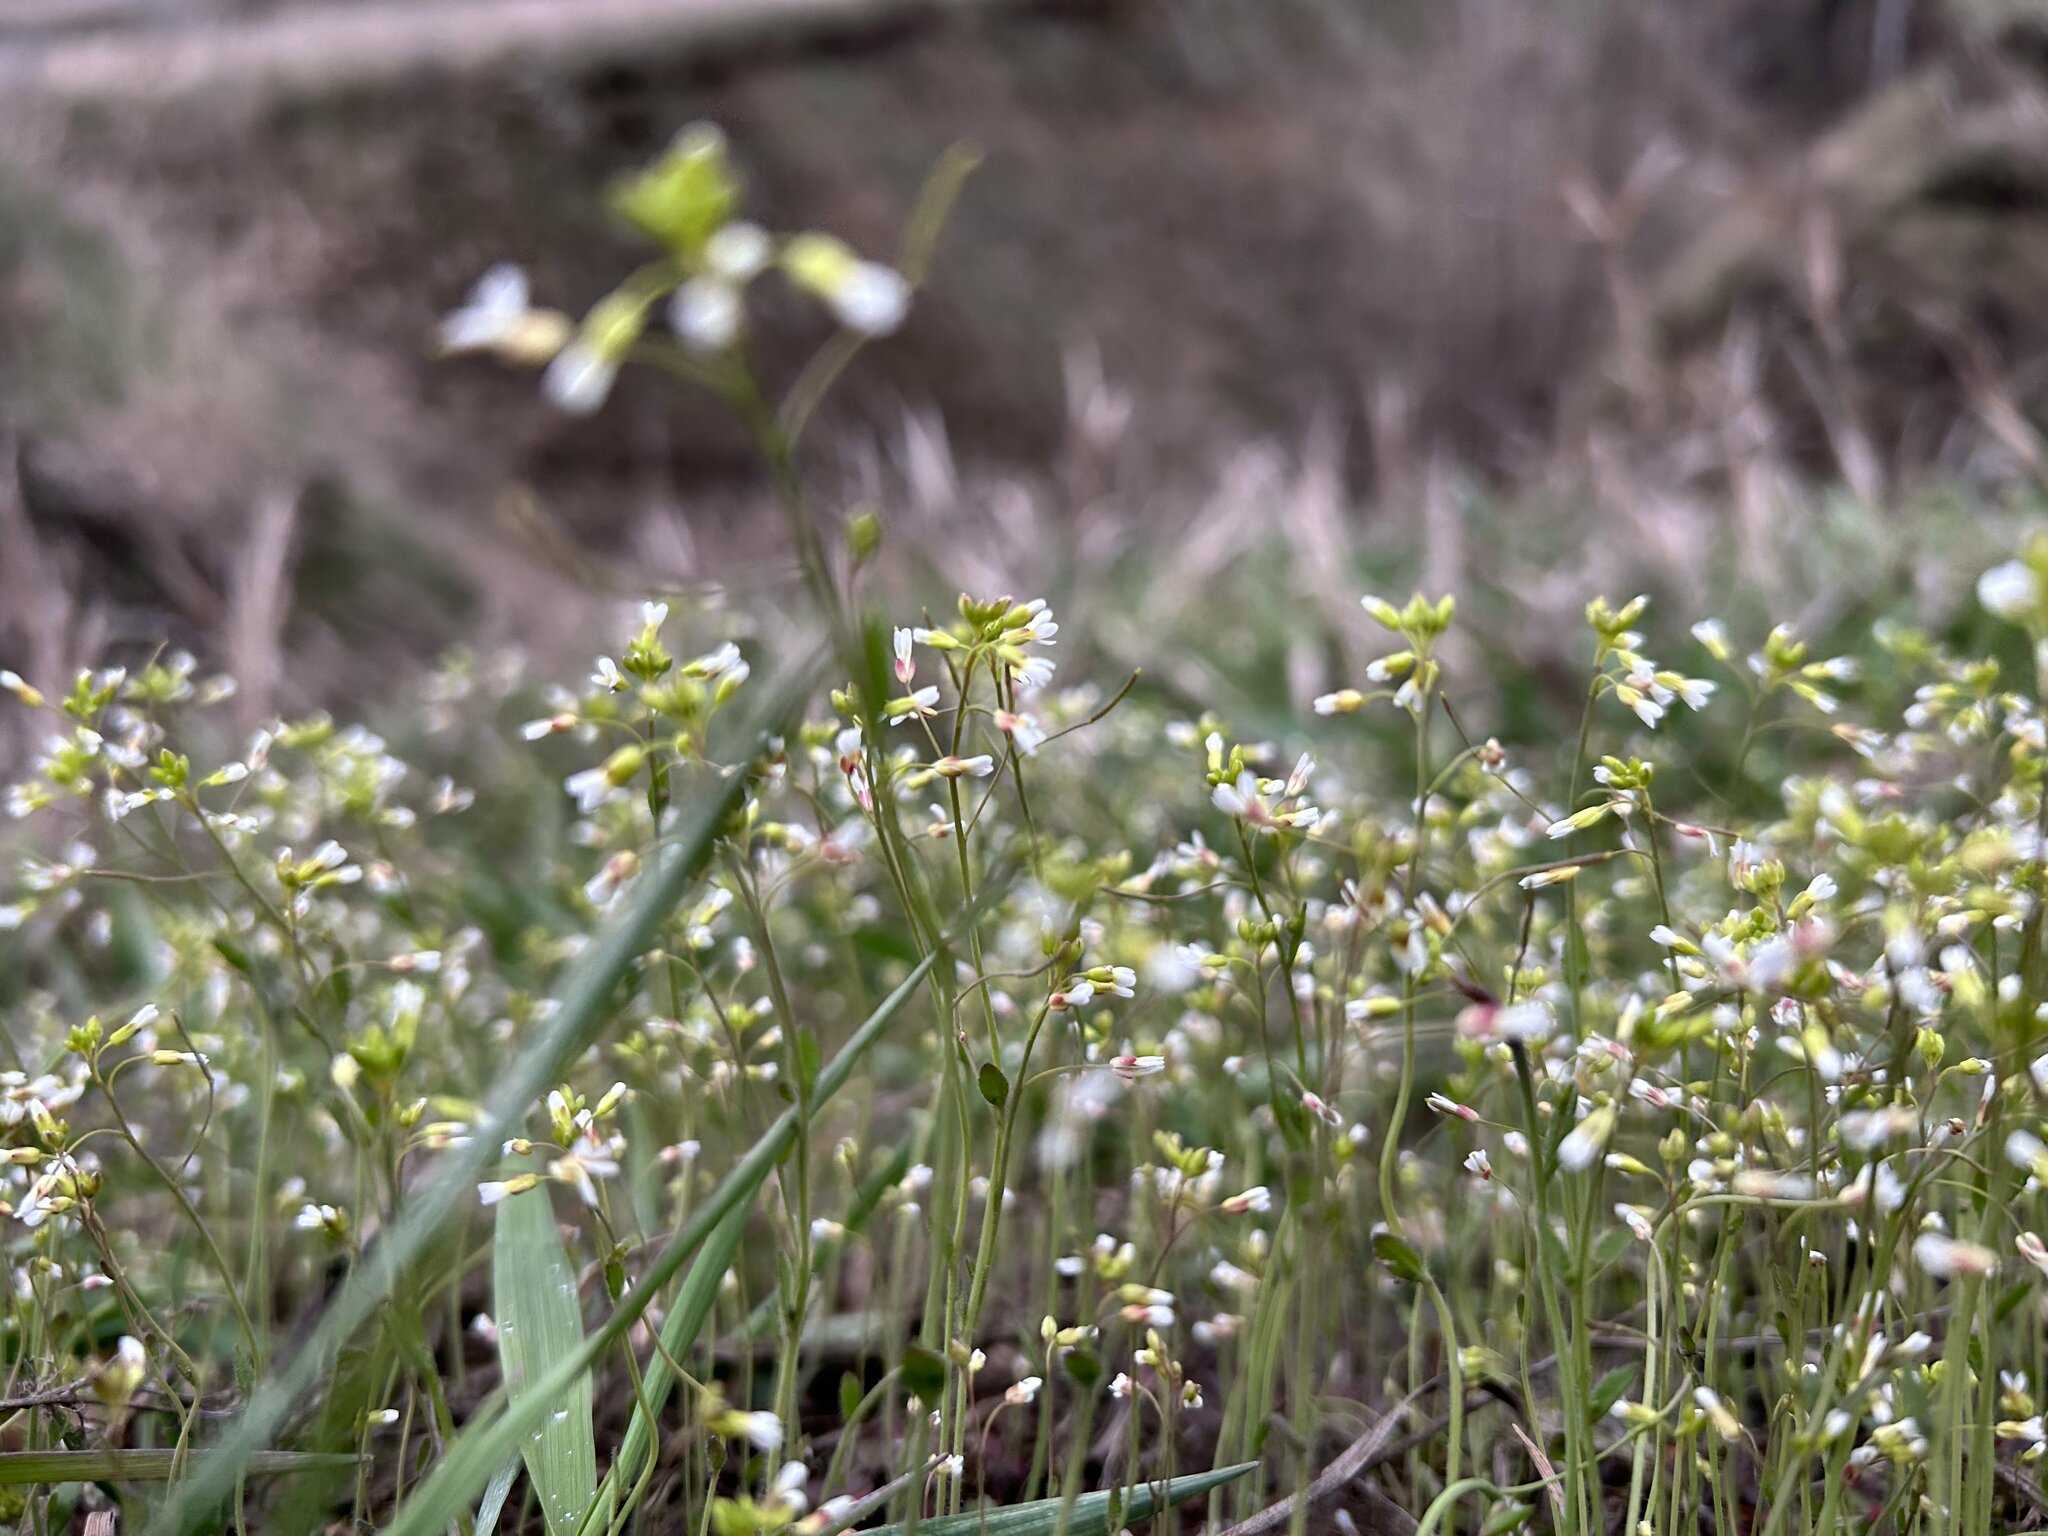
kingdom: Plantae
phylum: Tracheophyta
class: Magnoliopsida
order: Brassicales
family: Brassicaceae
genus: Arabidopsis
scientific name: Arabidopsis thaliana
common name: Thale cress
